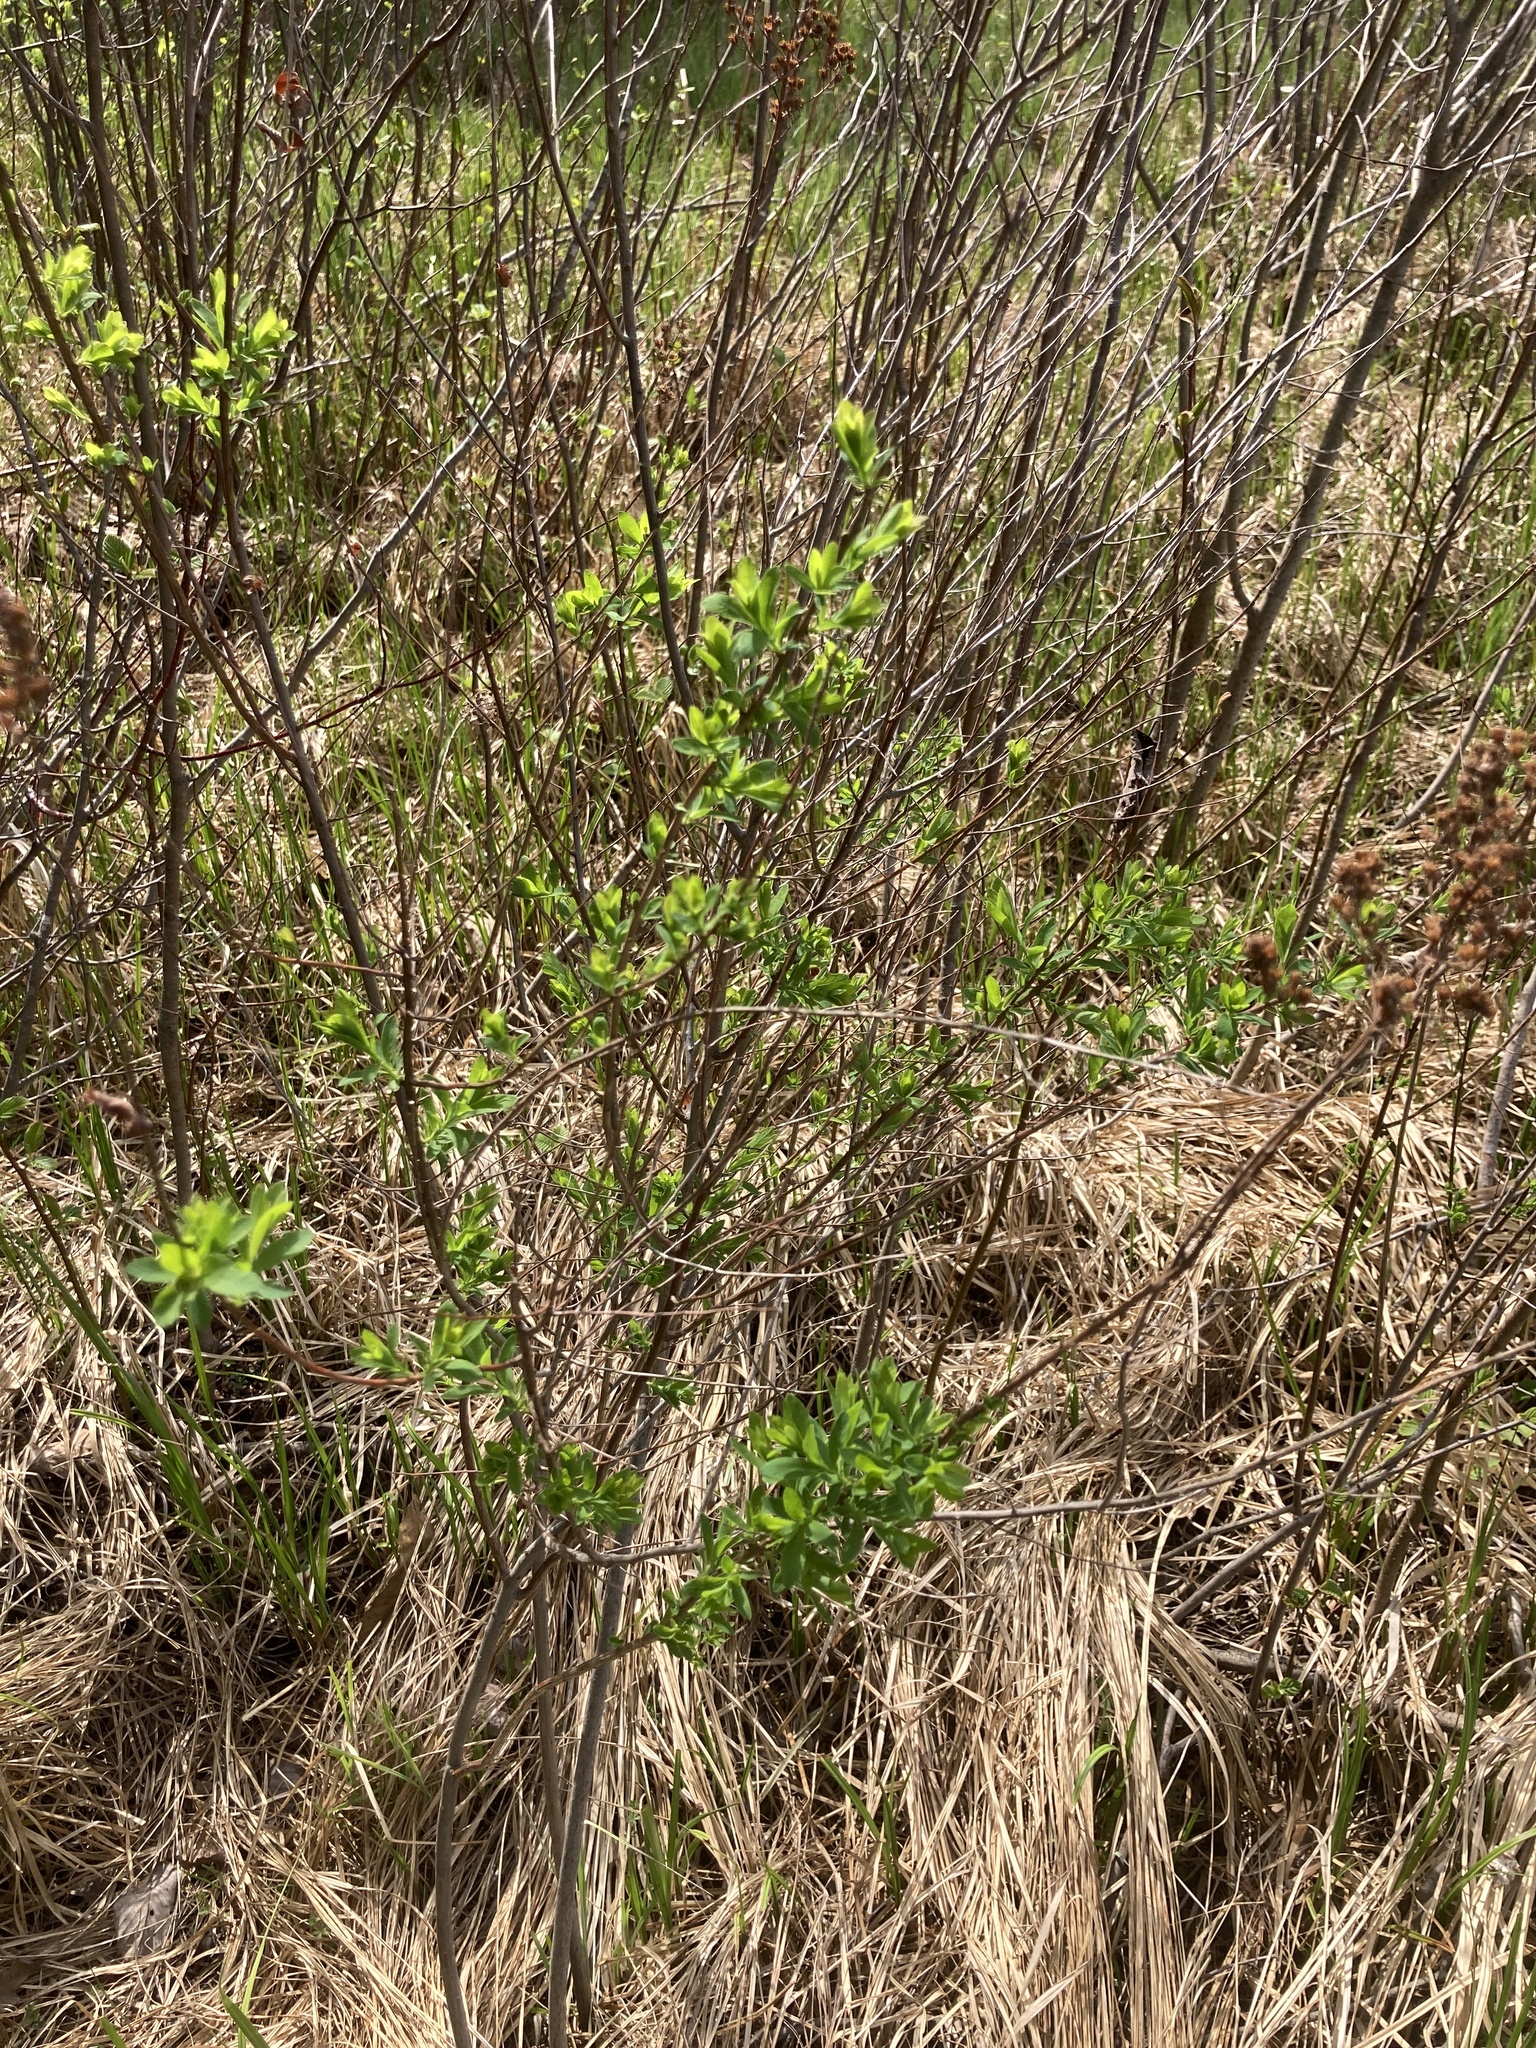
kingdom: Plantae
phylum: Tracheophyta
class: Magnoliopsida
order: Rosales
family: Rosaceae
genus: Spiraea
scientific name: Spiraea alba
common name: Pale bridewort
